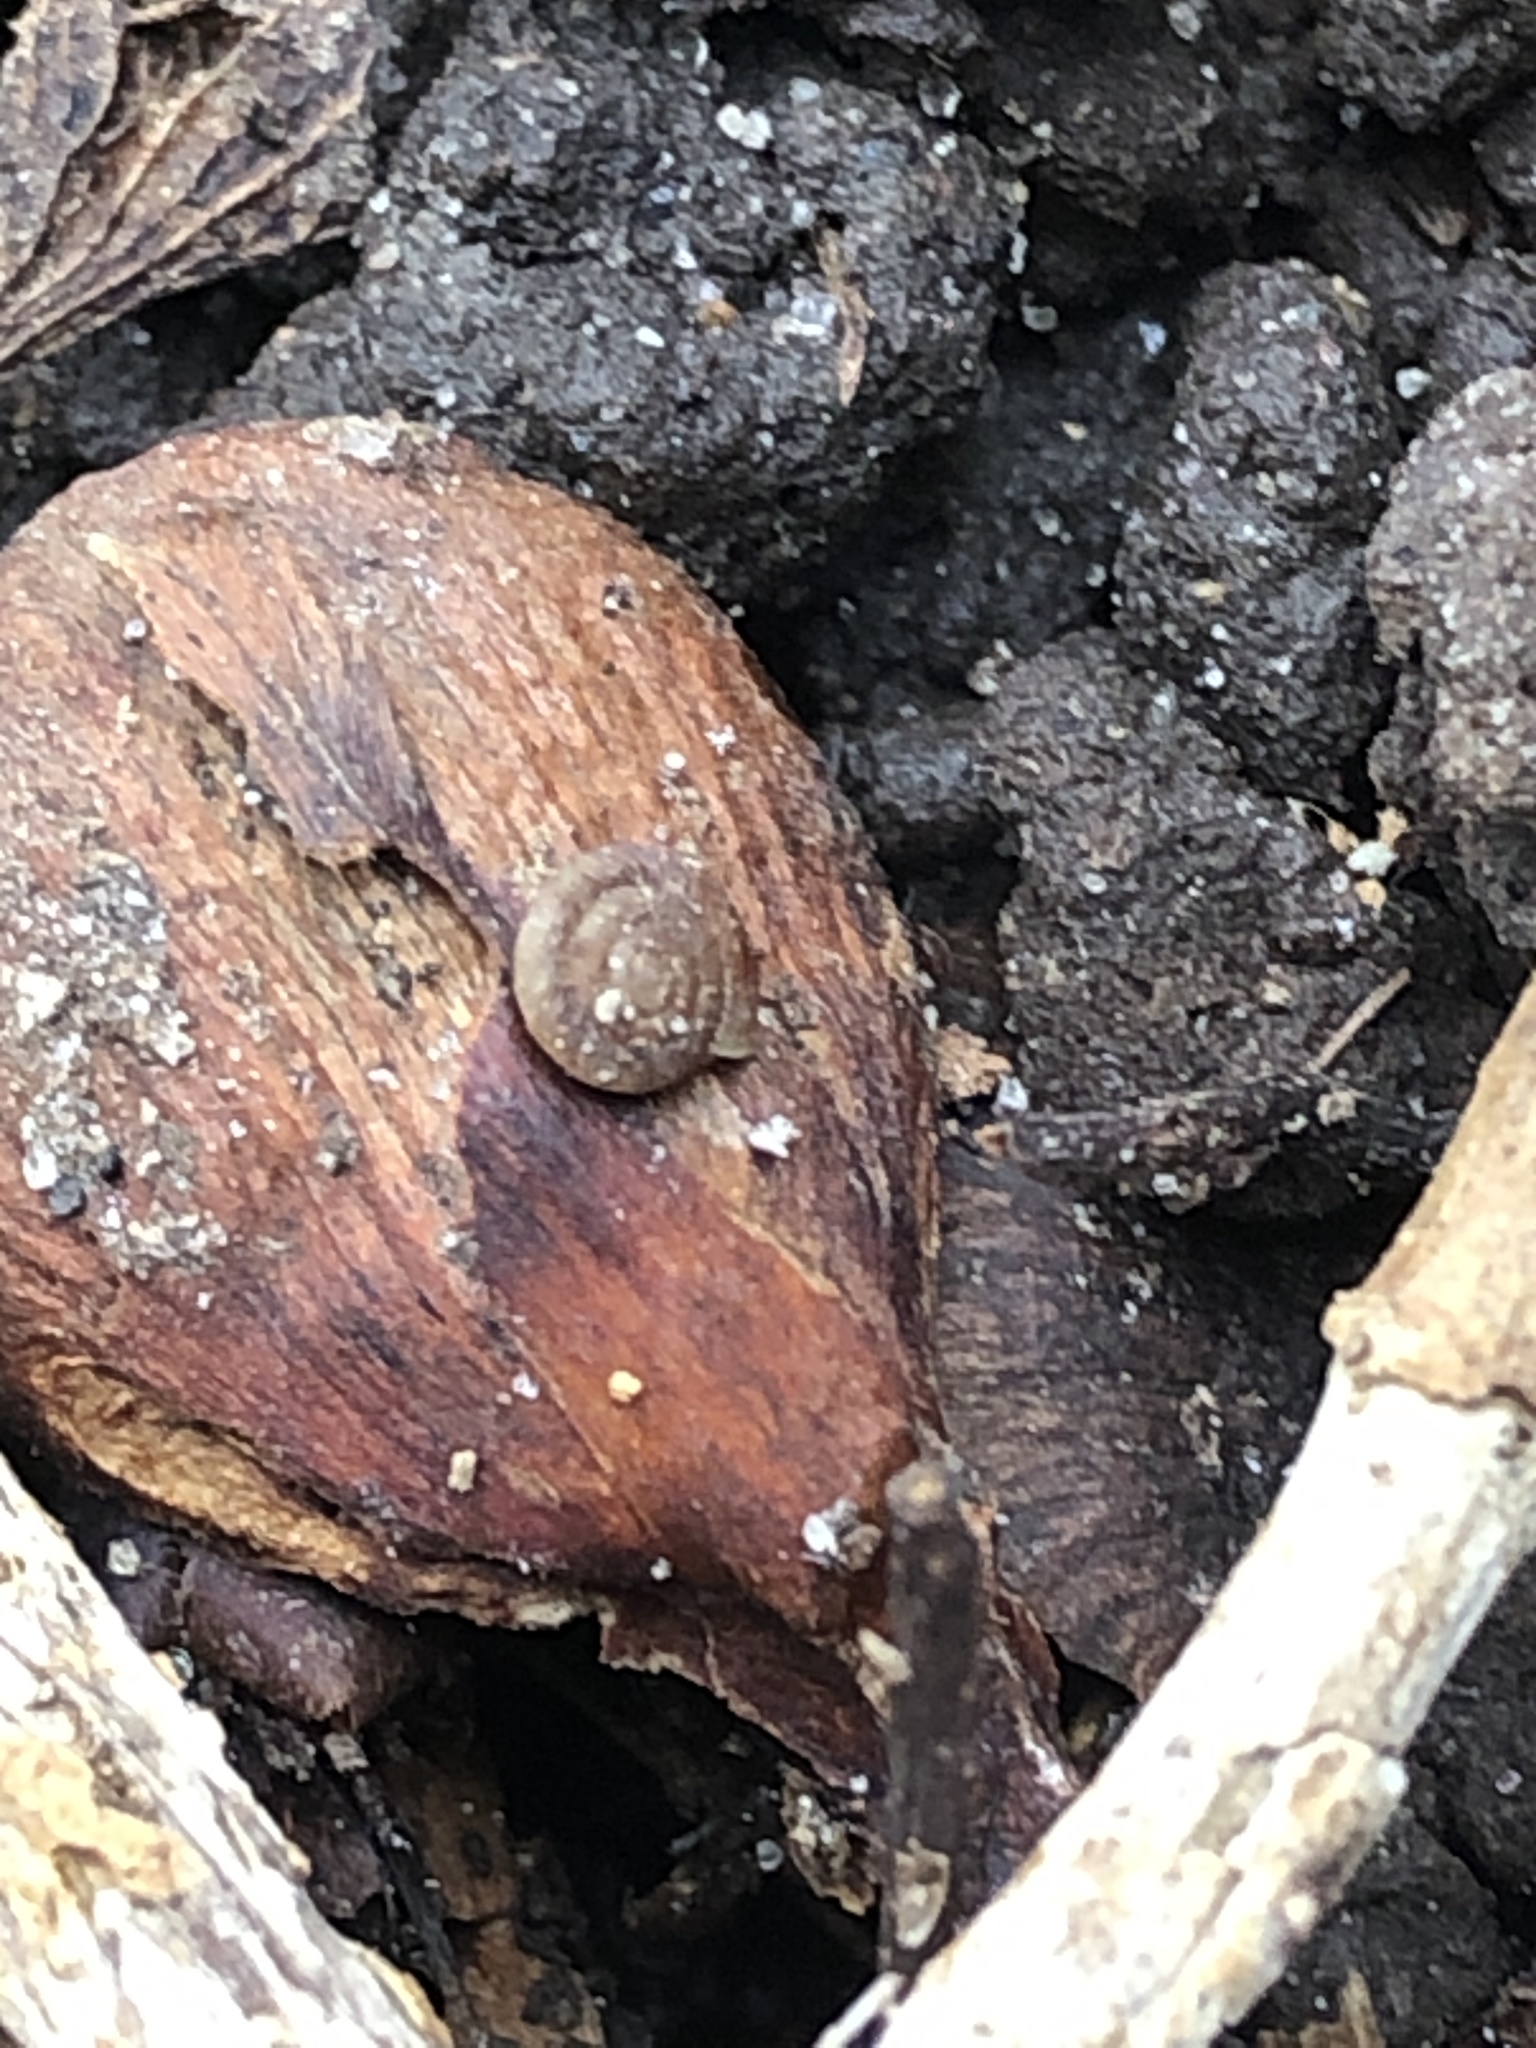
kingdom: Animalia
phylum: Mollusca
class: Gastropoda
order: Stylommatophora
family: Discidae
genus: Discus
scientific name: Discus rotundatus
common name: Rounded snail
